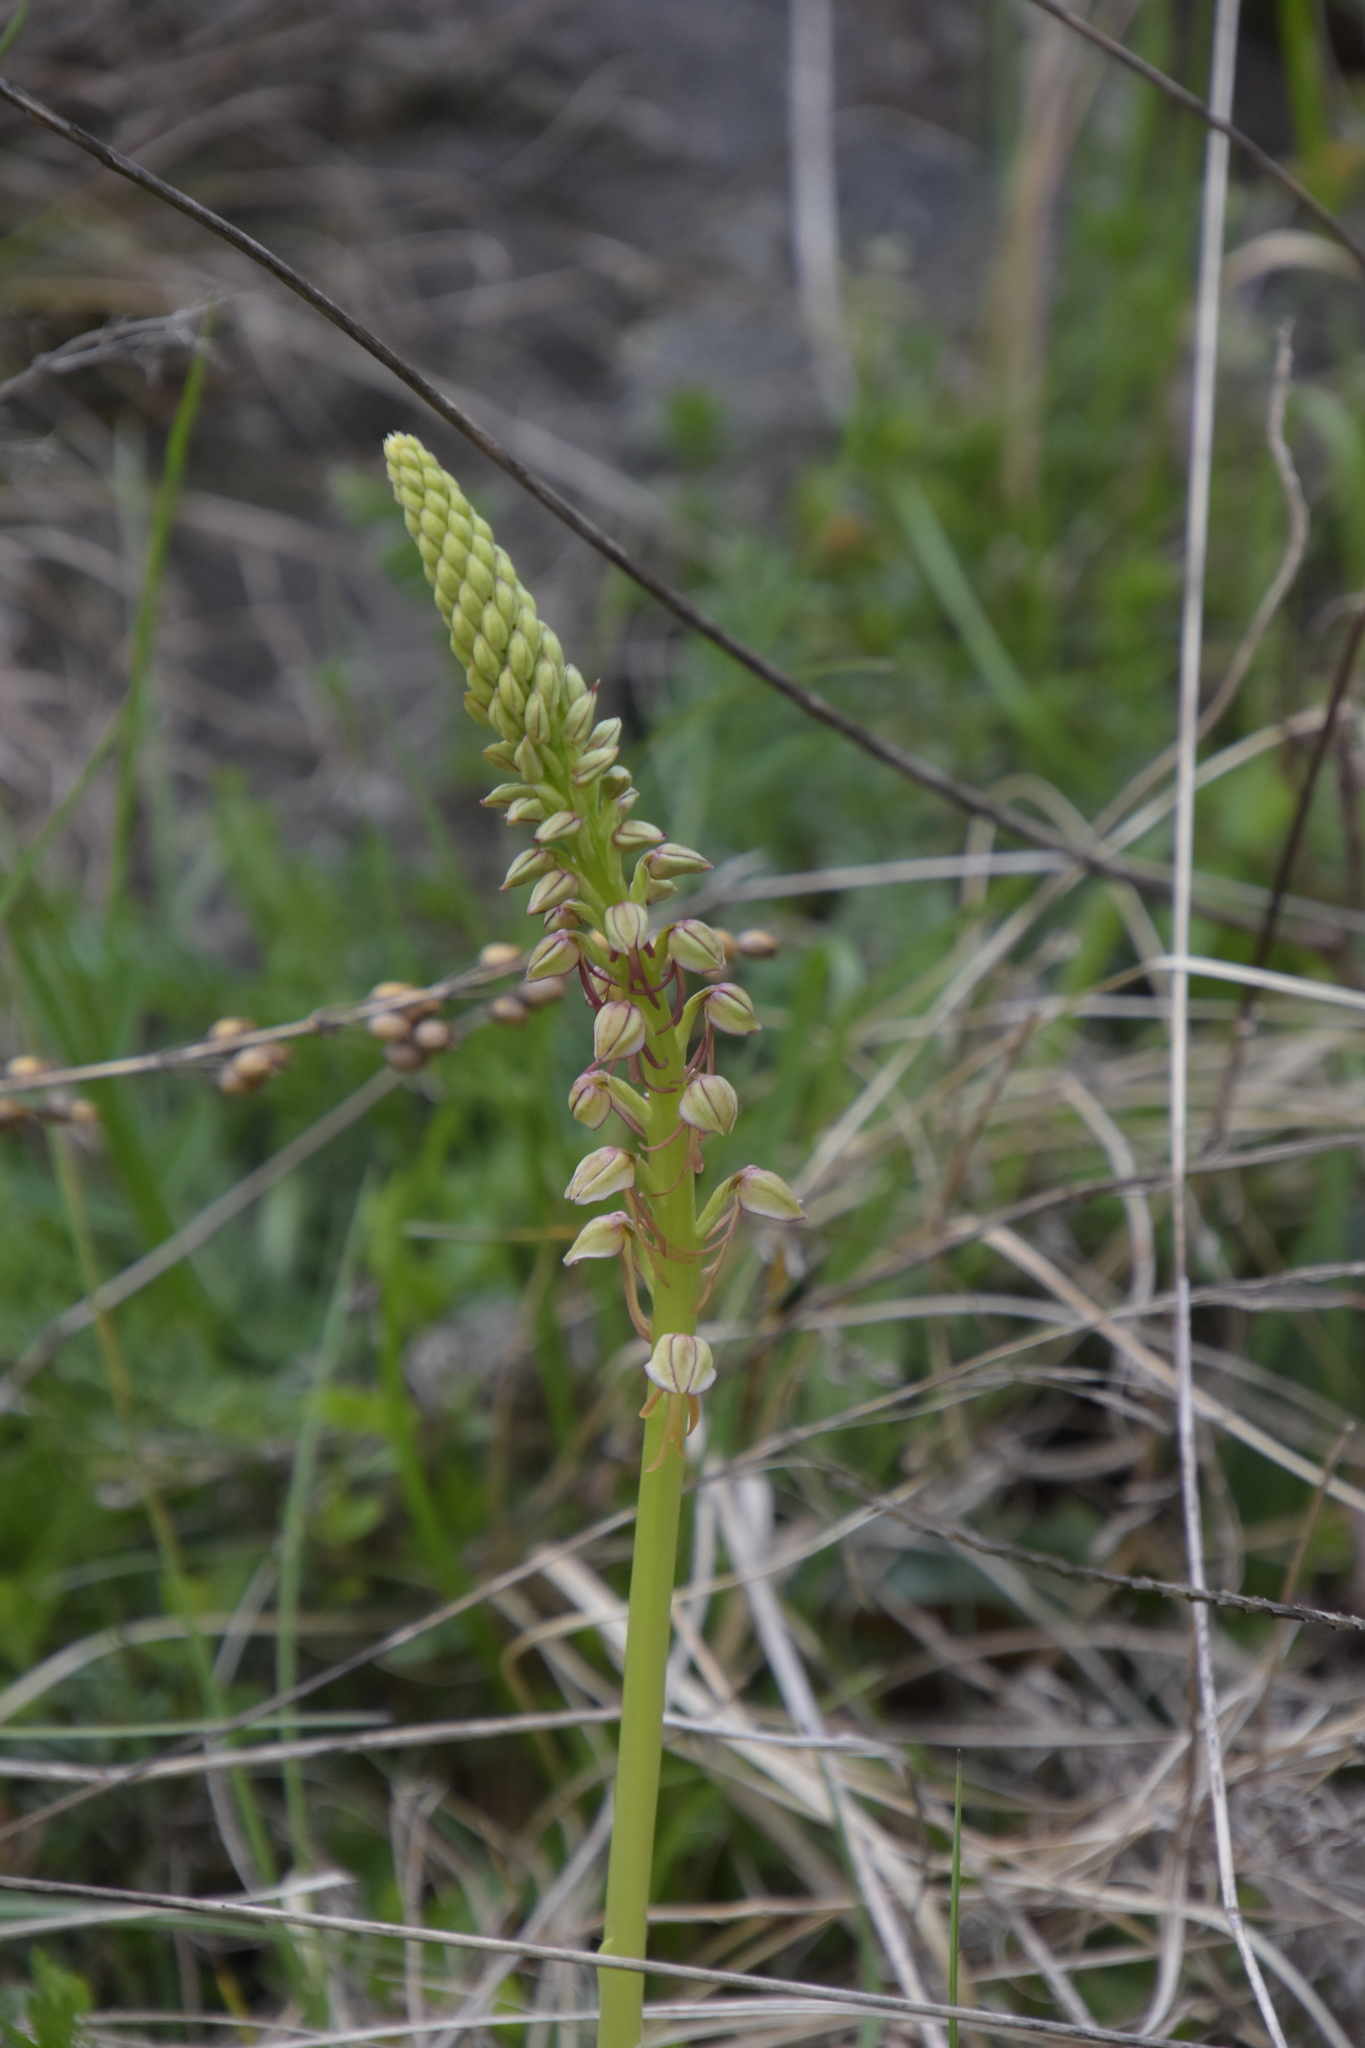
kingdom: Plantae
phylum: Tracheophyta
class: Liliopsida
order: Asparagales
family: Orchidaceae
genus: Orchis
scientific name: Orchis anthropophora
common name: Man orchid
